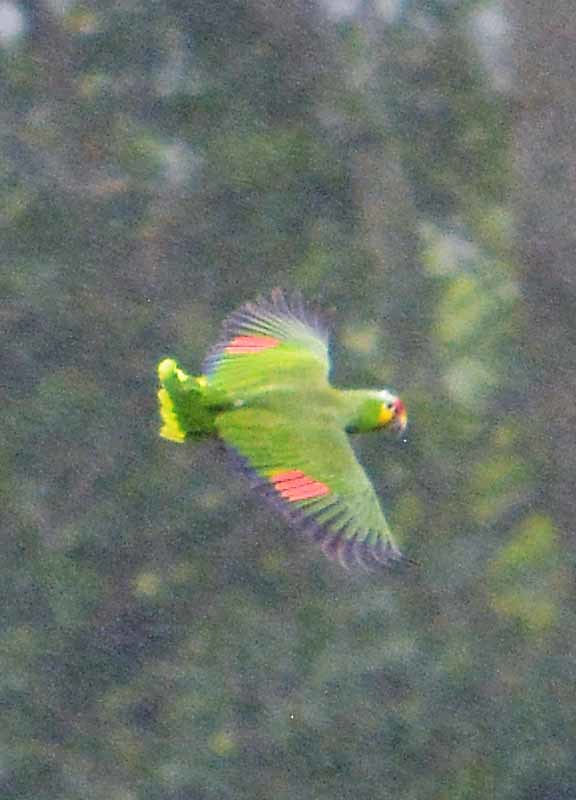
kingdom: Animalia
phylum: Chordata
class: Aves
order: Psittaciformes
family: Psittacidae
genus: Amazona
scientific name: Amazona autumnalis
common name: Red-lored amazon
